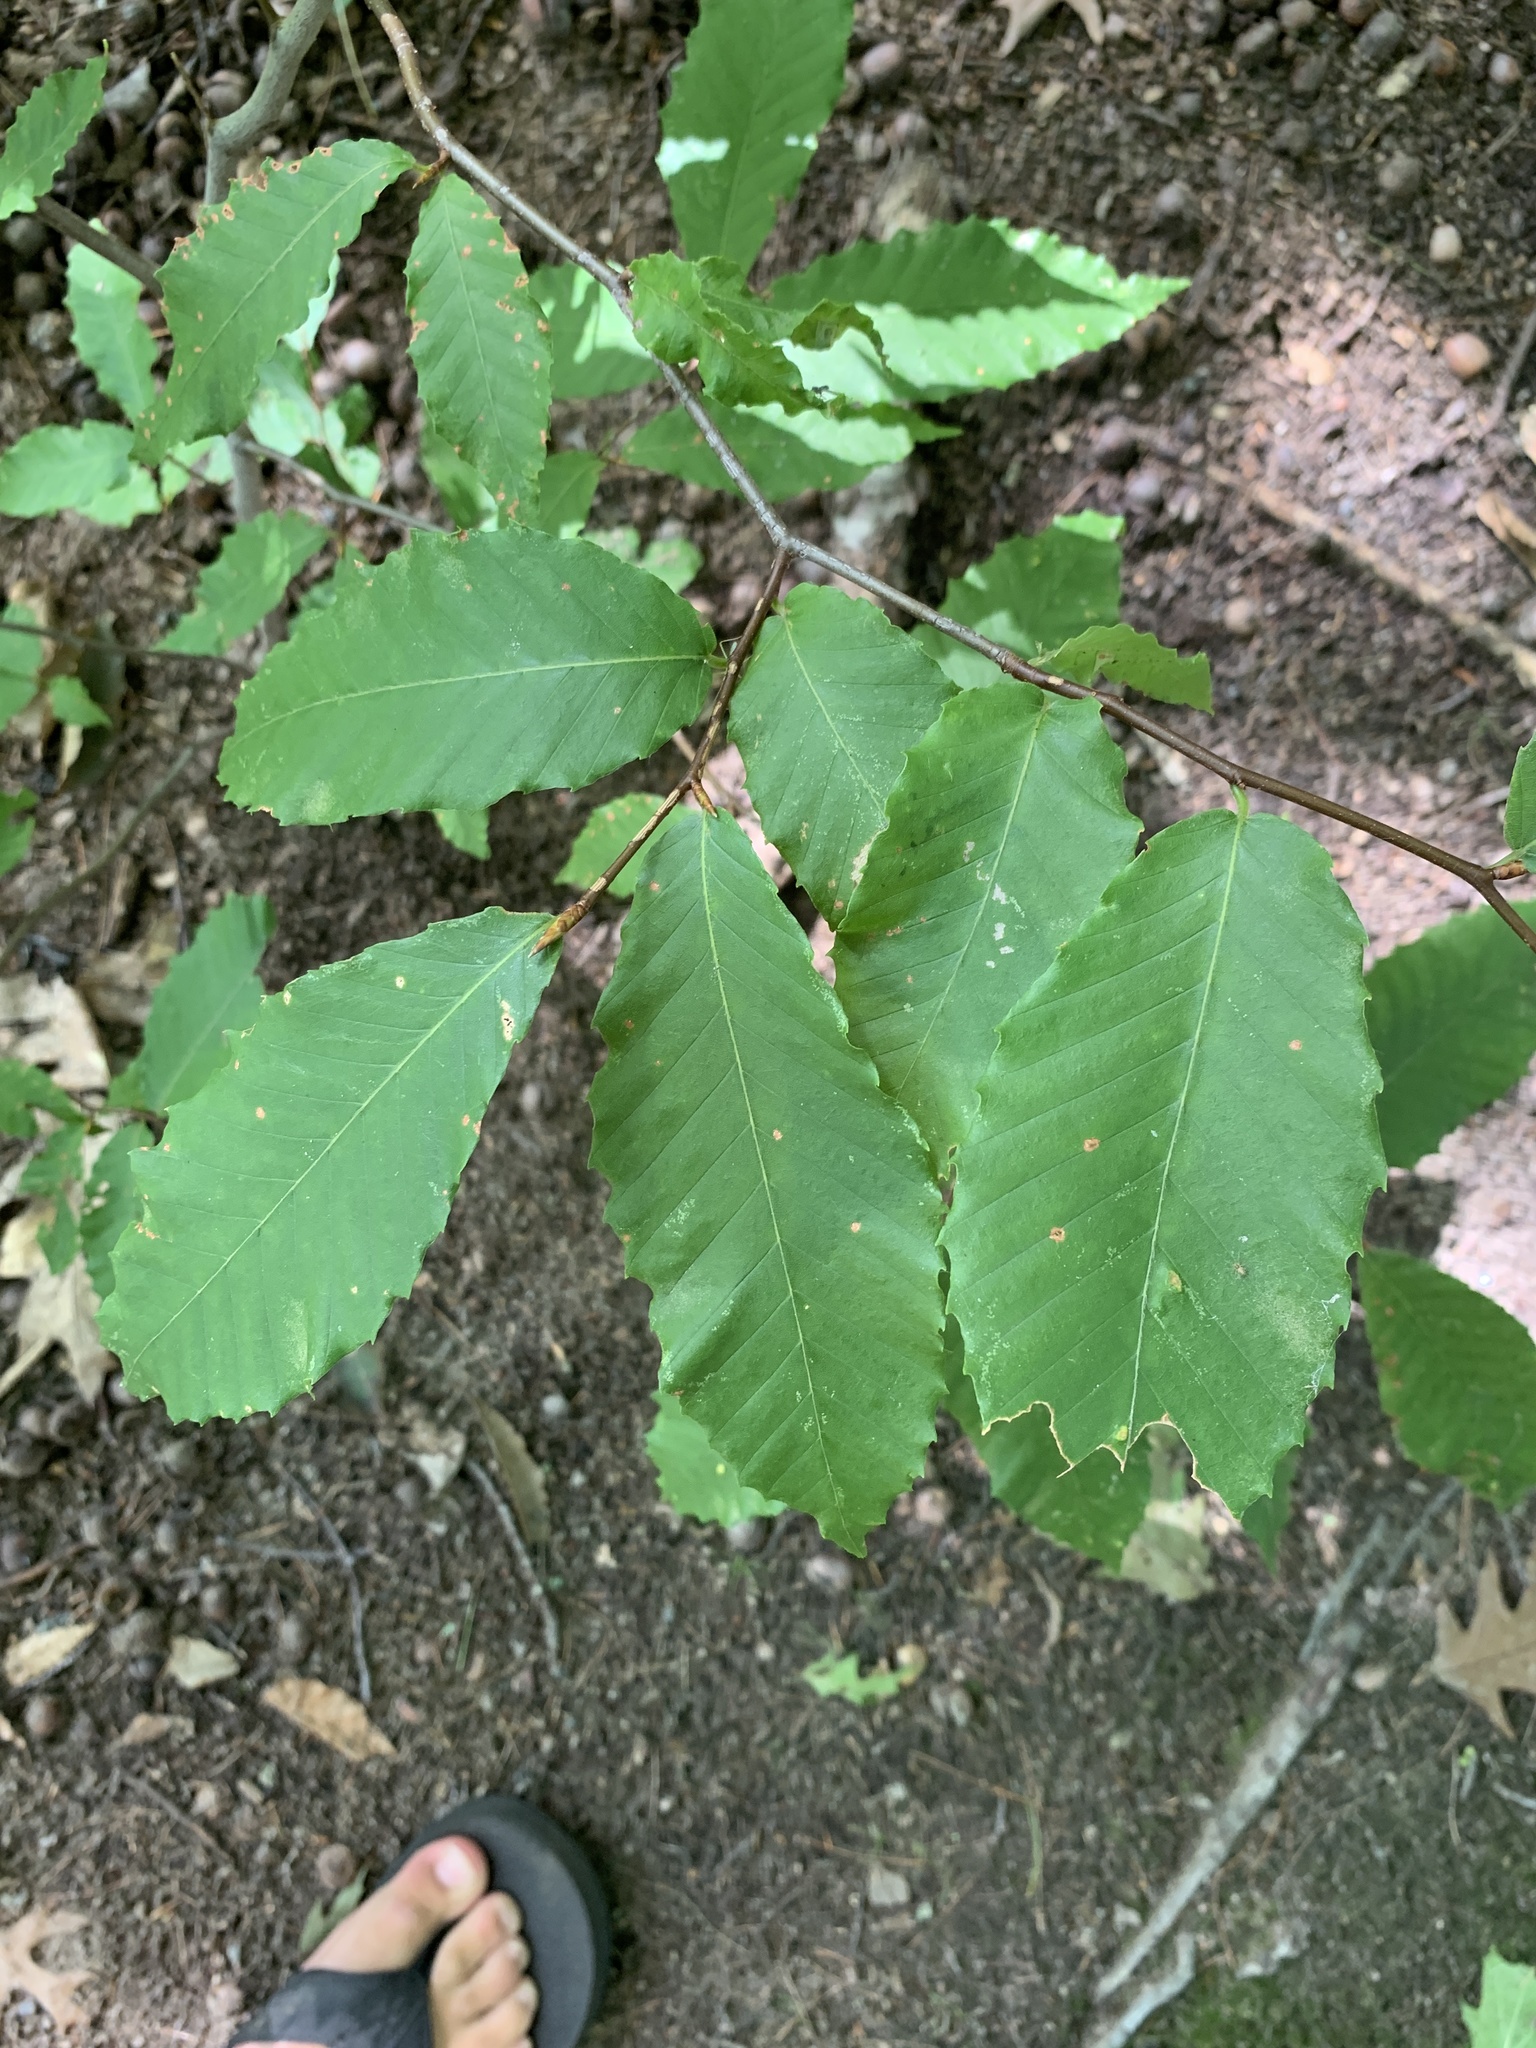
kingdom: Plantae
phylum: Tracheophyta
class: Magnoliopsida
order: Fagales
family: Fagaceae
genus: Fagus
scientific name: Fagus grandifolia
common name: American beech
